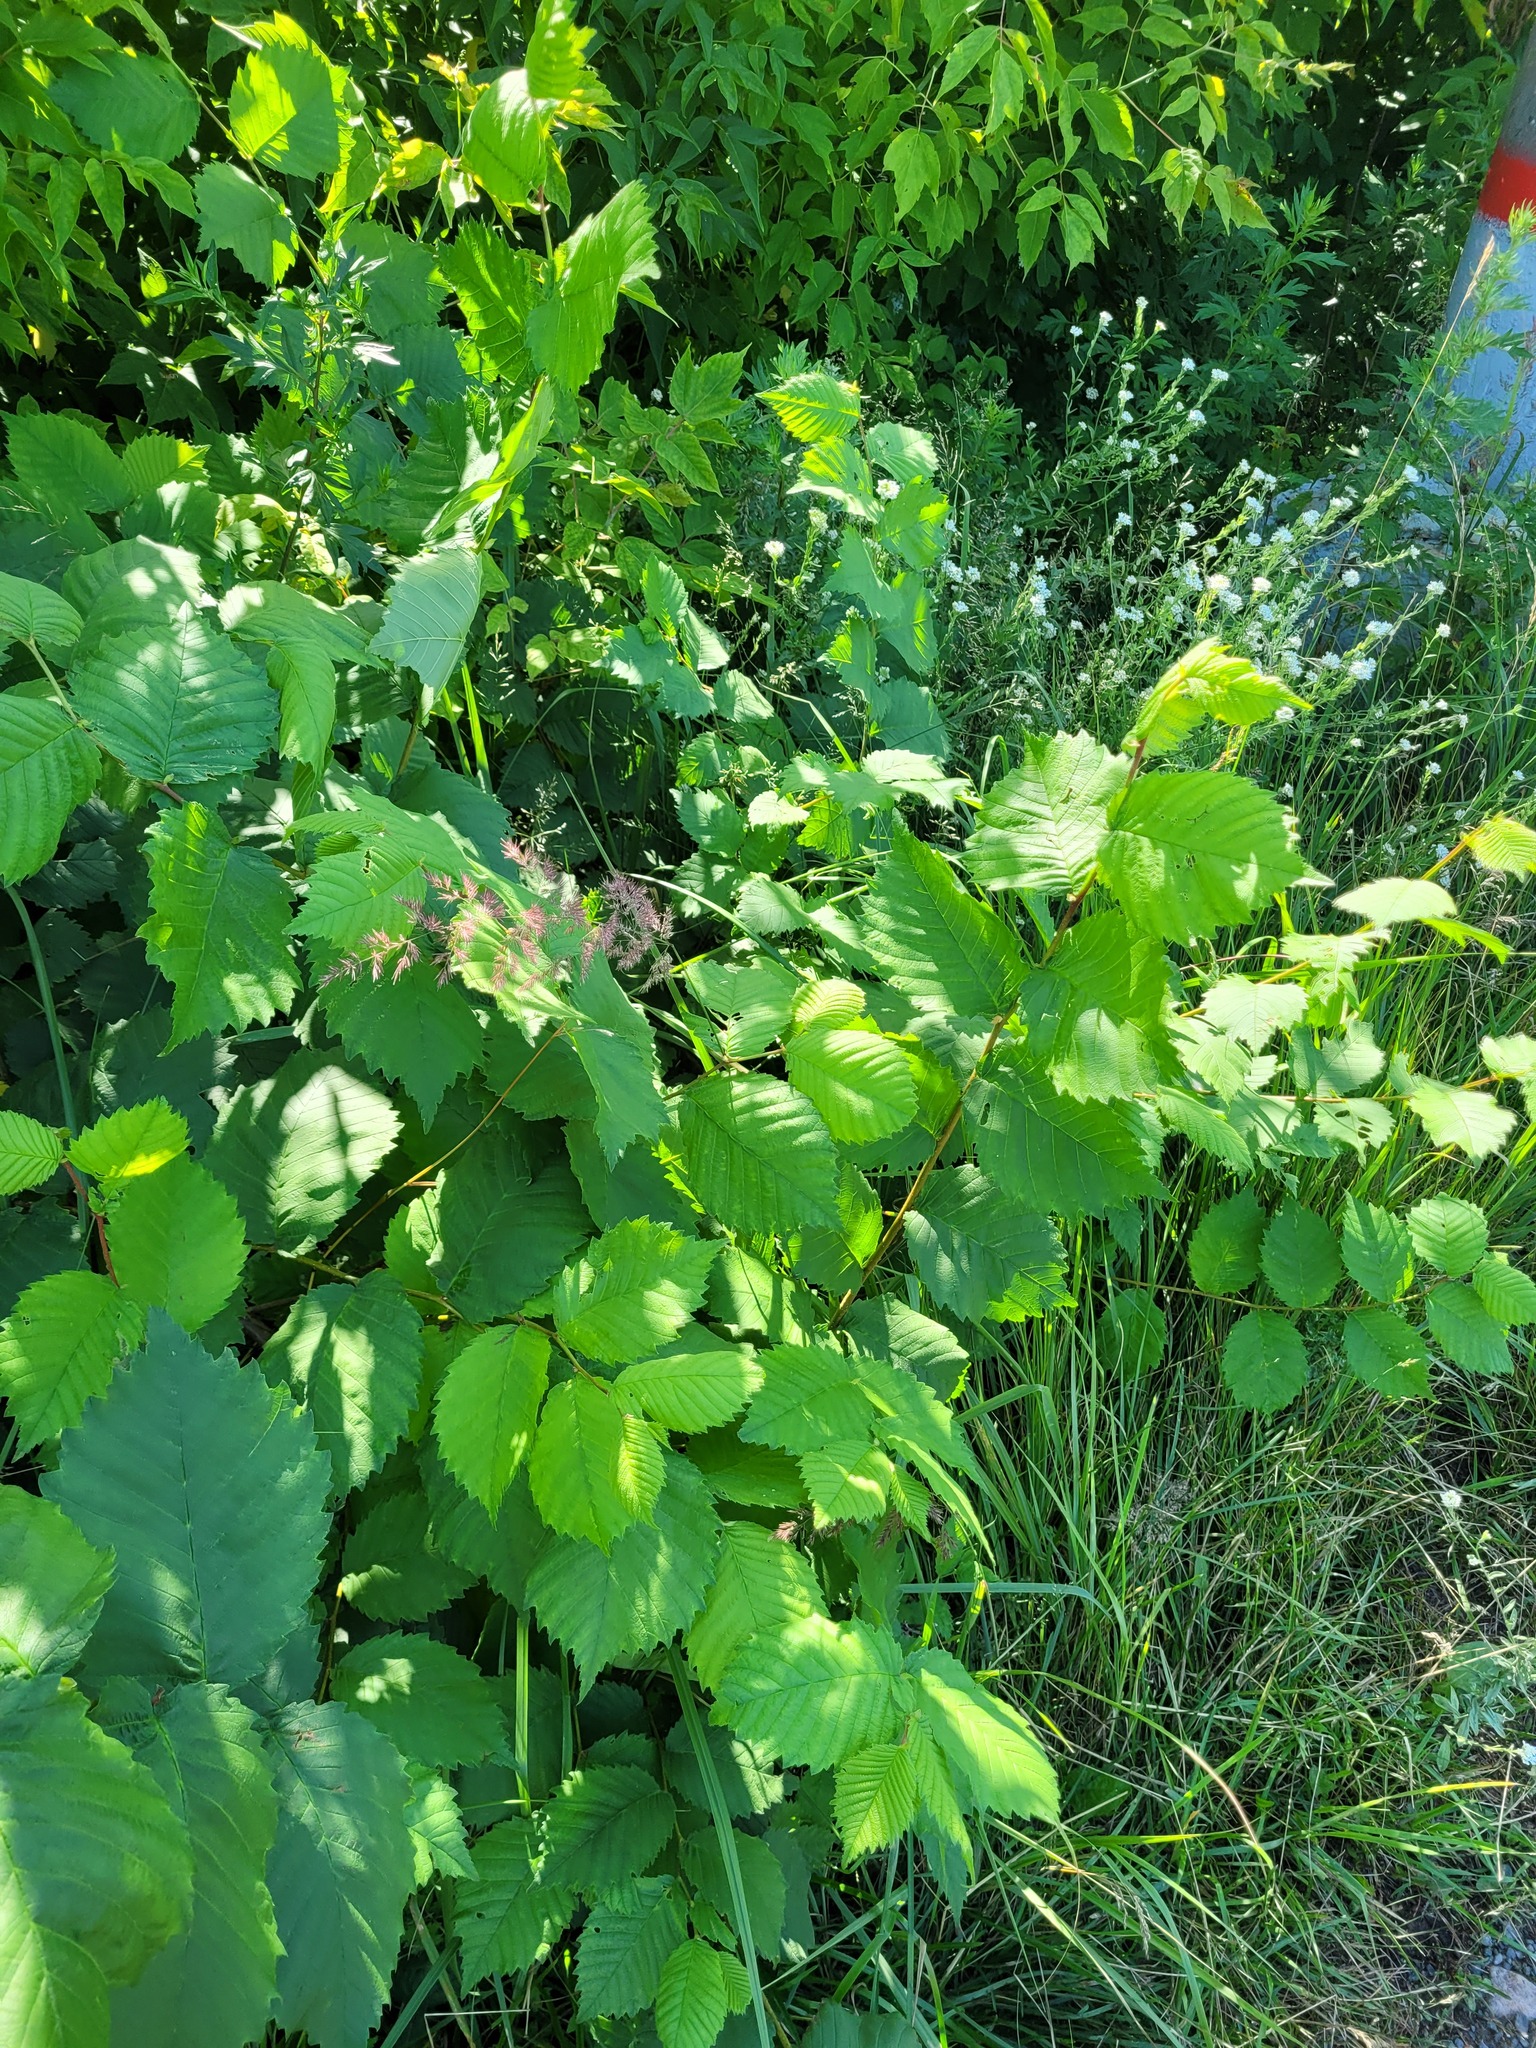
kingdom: Plantae
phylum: Tracheophyta
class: Magnoliopsida
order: Rosales
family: Ulmaceae
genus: Ulmus
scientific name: Ulmus laevis
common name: European white-elm
